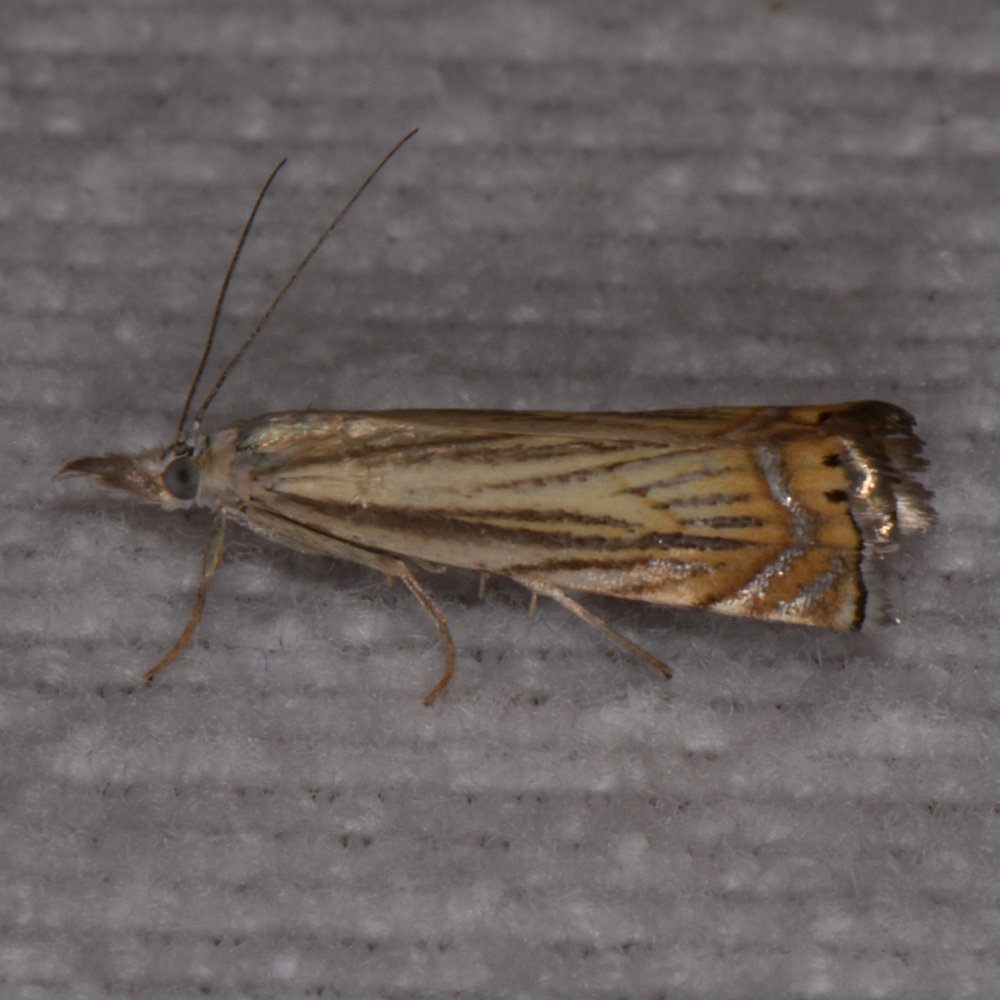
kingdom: Animalia
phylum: Arthropoda
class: Insecta
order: Lepidoptera
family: Crambidae
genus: Chrysoteuchia
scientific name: Chrysoteuchia topiarius
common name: Topiary grass-veneer
